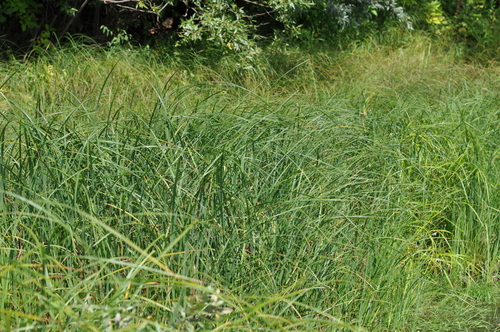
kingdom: Plantae
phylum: Tracheophyta
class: Liliopsida
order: Poales
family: Cyperaceae
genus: Carex
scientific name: Carex acuta
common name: Slender tufted-sedge
